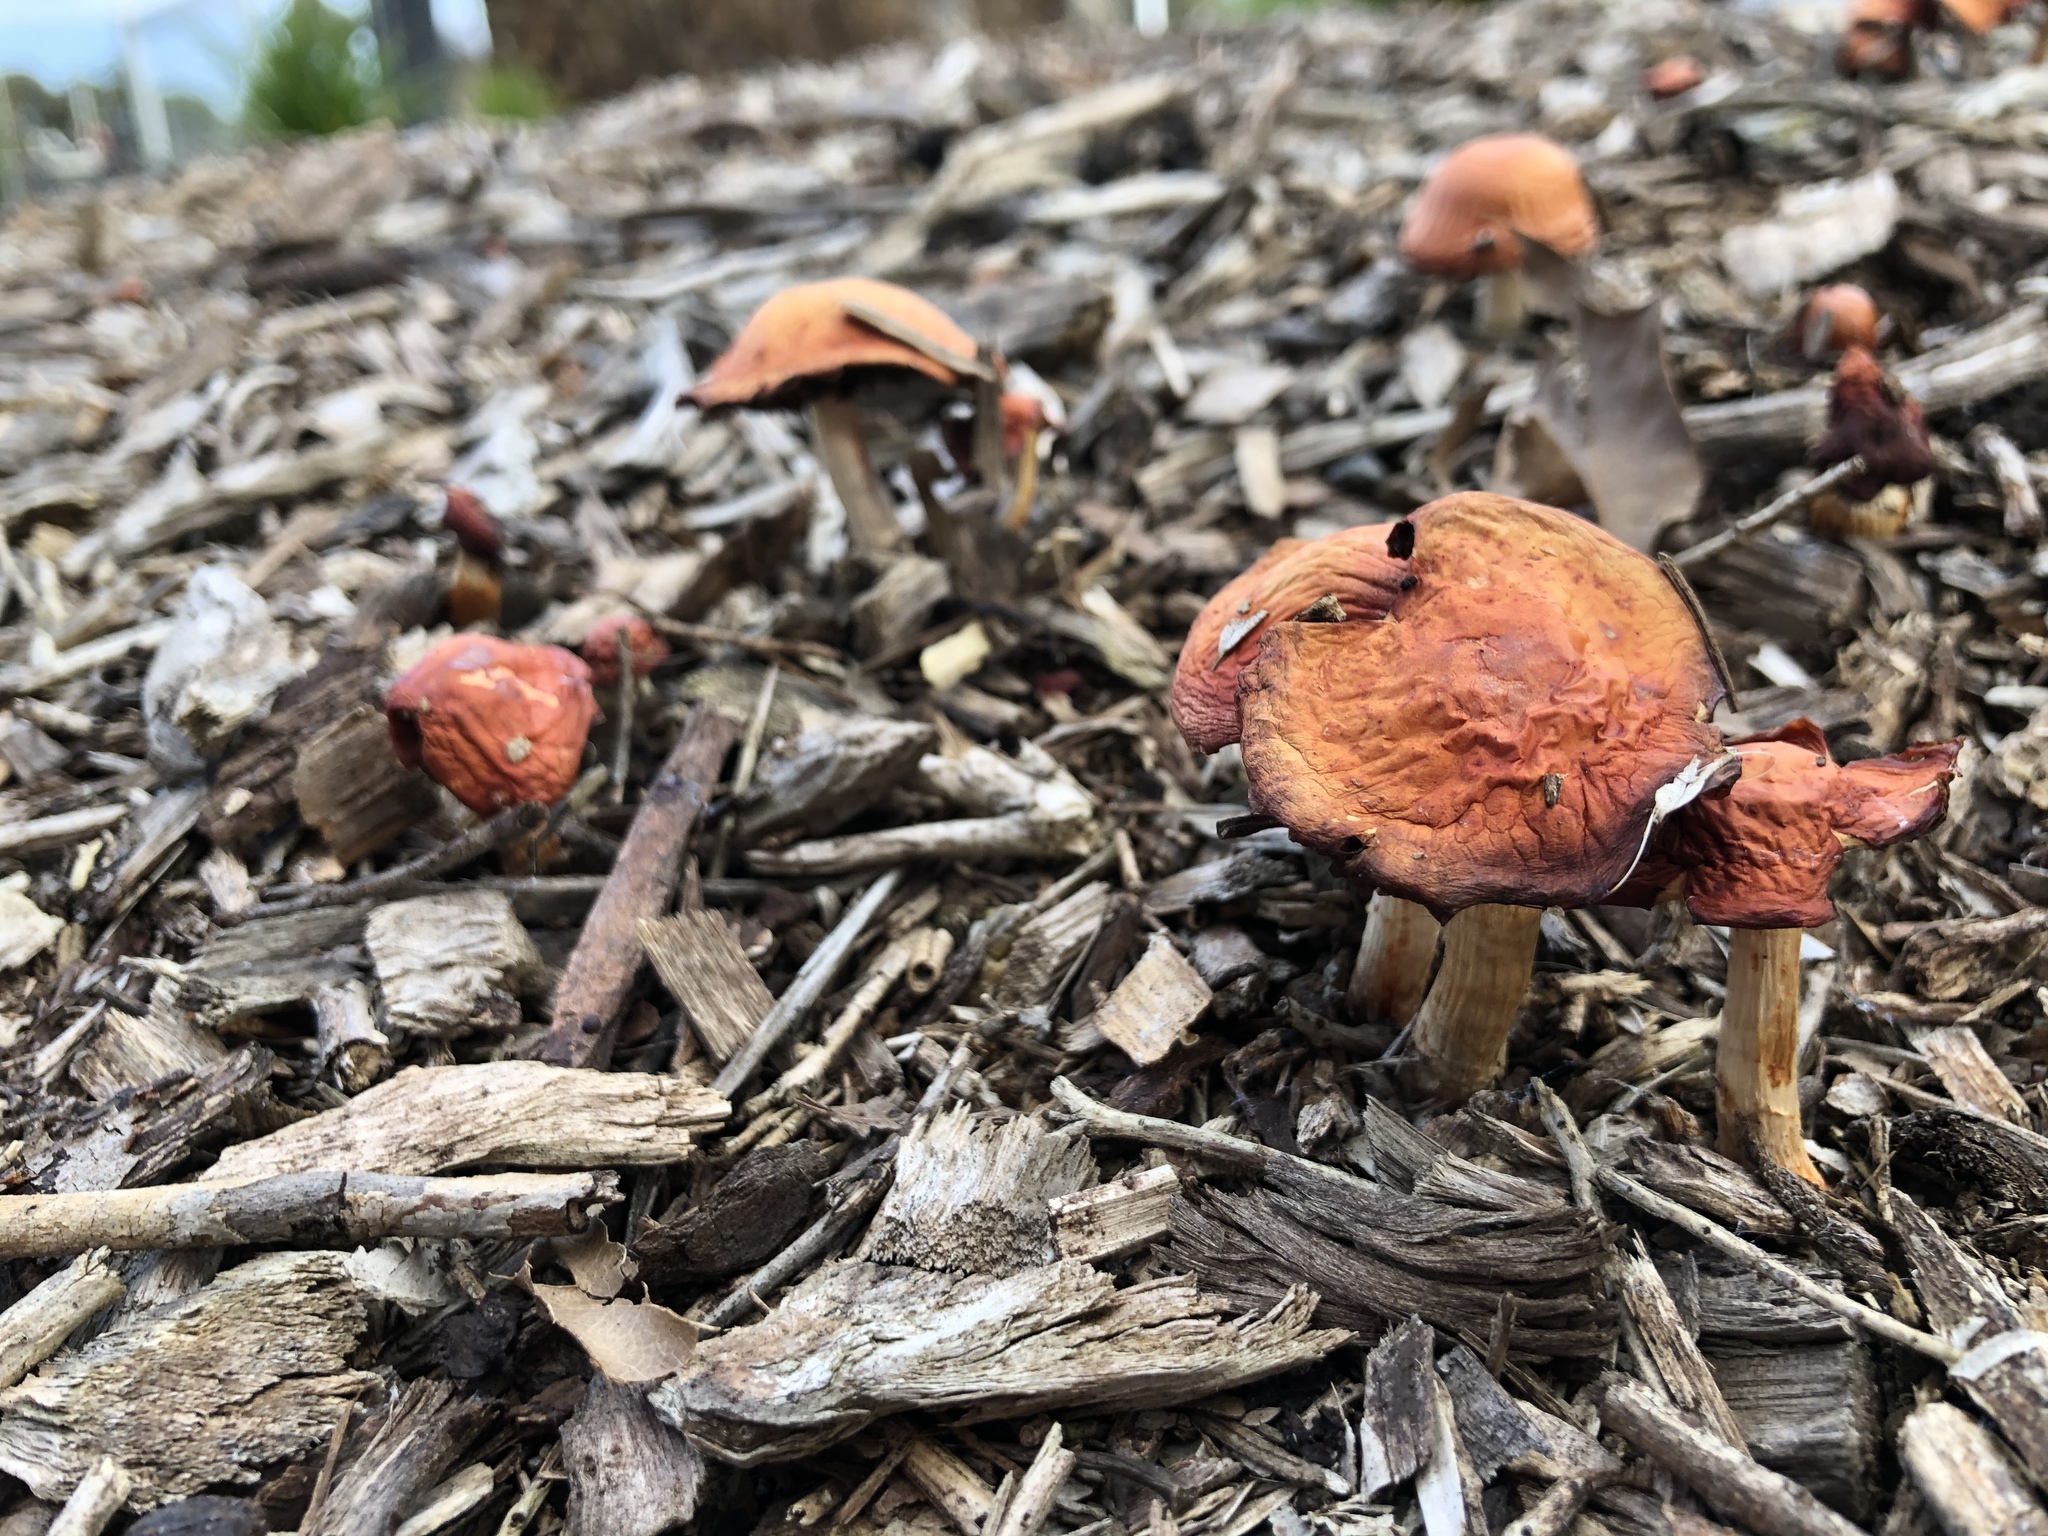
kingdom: Fungi
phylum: Basidiomycota
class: Agaricomycetes
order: Agaricales
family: Strophariaceae
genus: Leratiomyces
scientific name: Leratiomyces ceres
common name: Redlead roundhead
